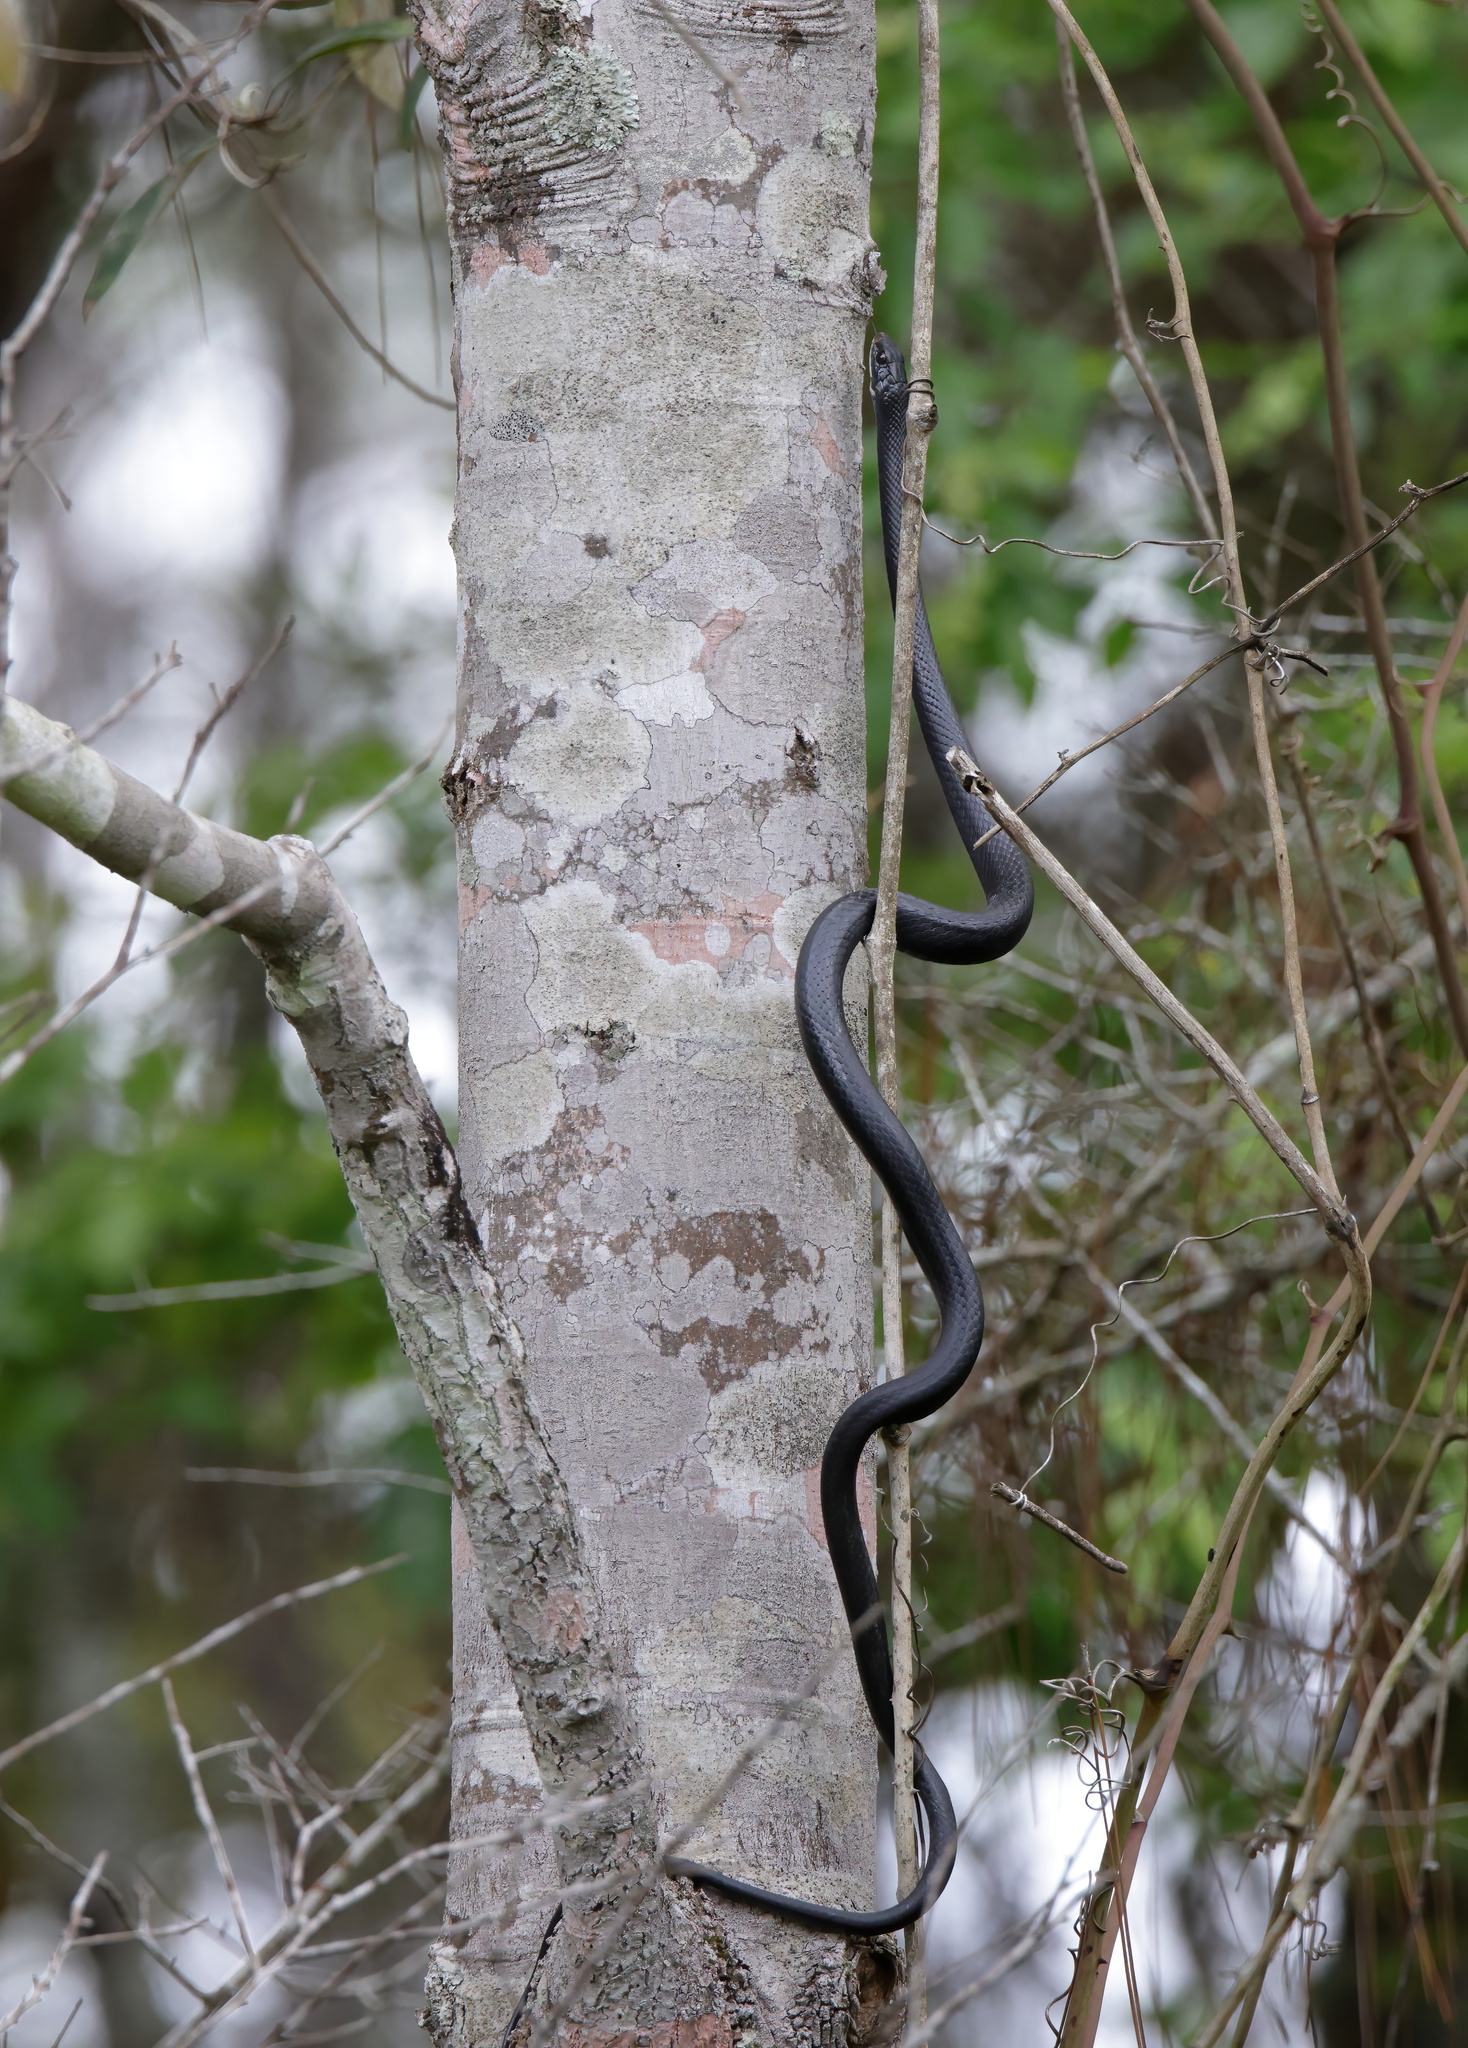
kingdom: Animalia
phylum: Chordata
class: Squamata
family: Colubridae
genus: Coluber
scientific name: Coluber constrictor
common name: Eastern racer
